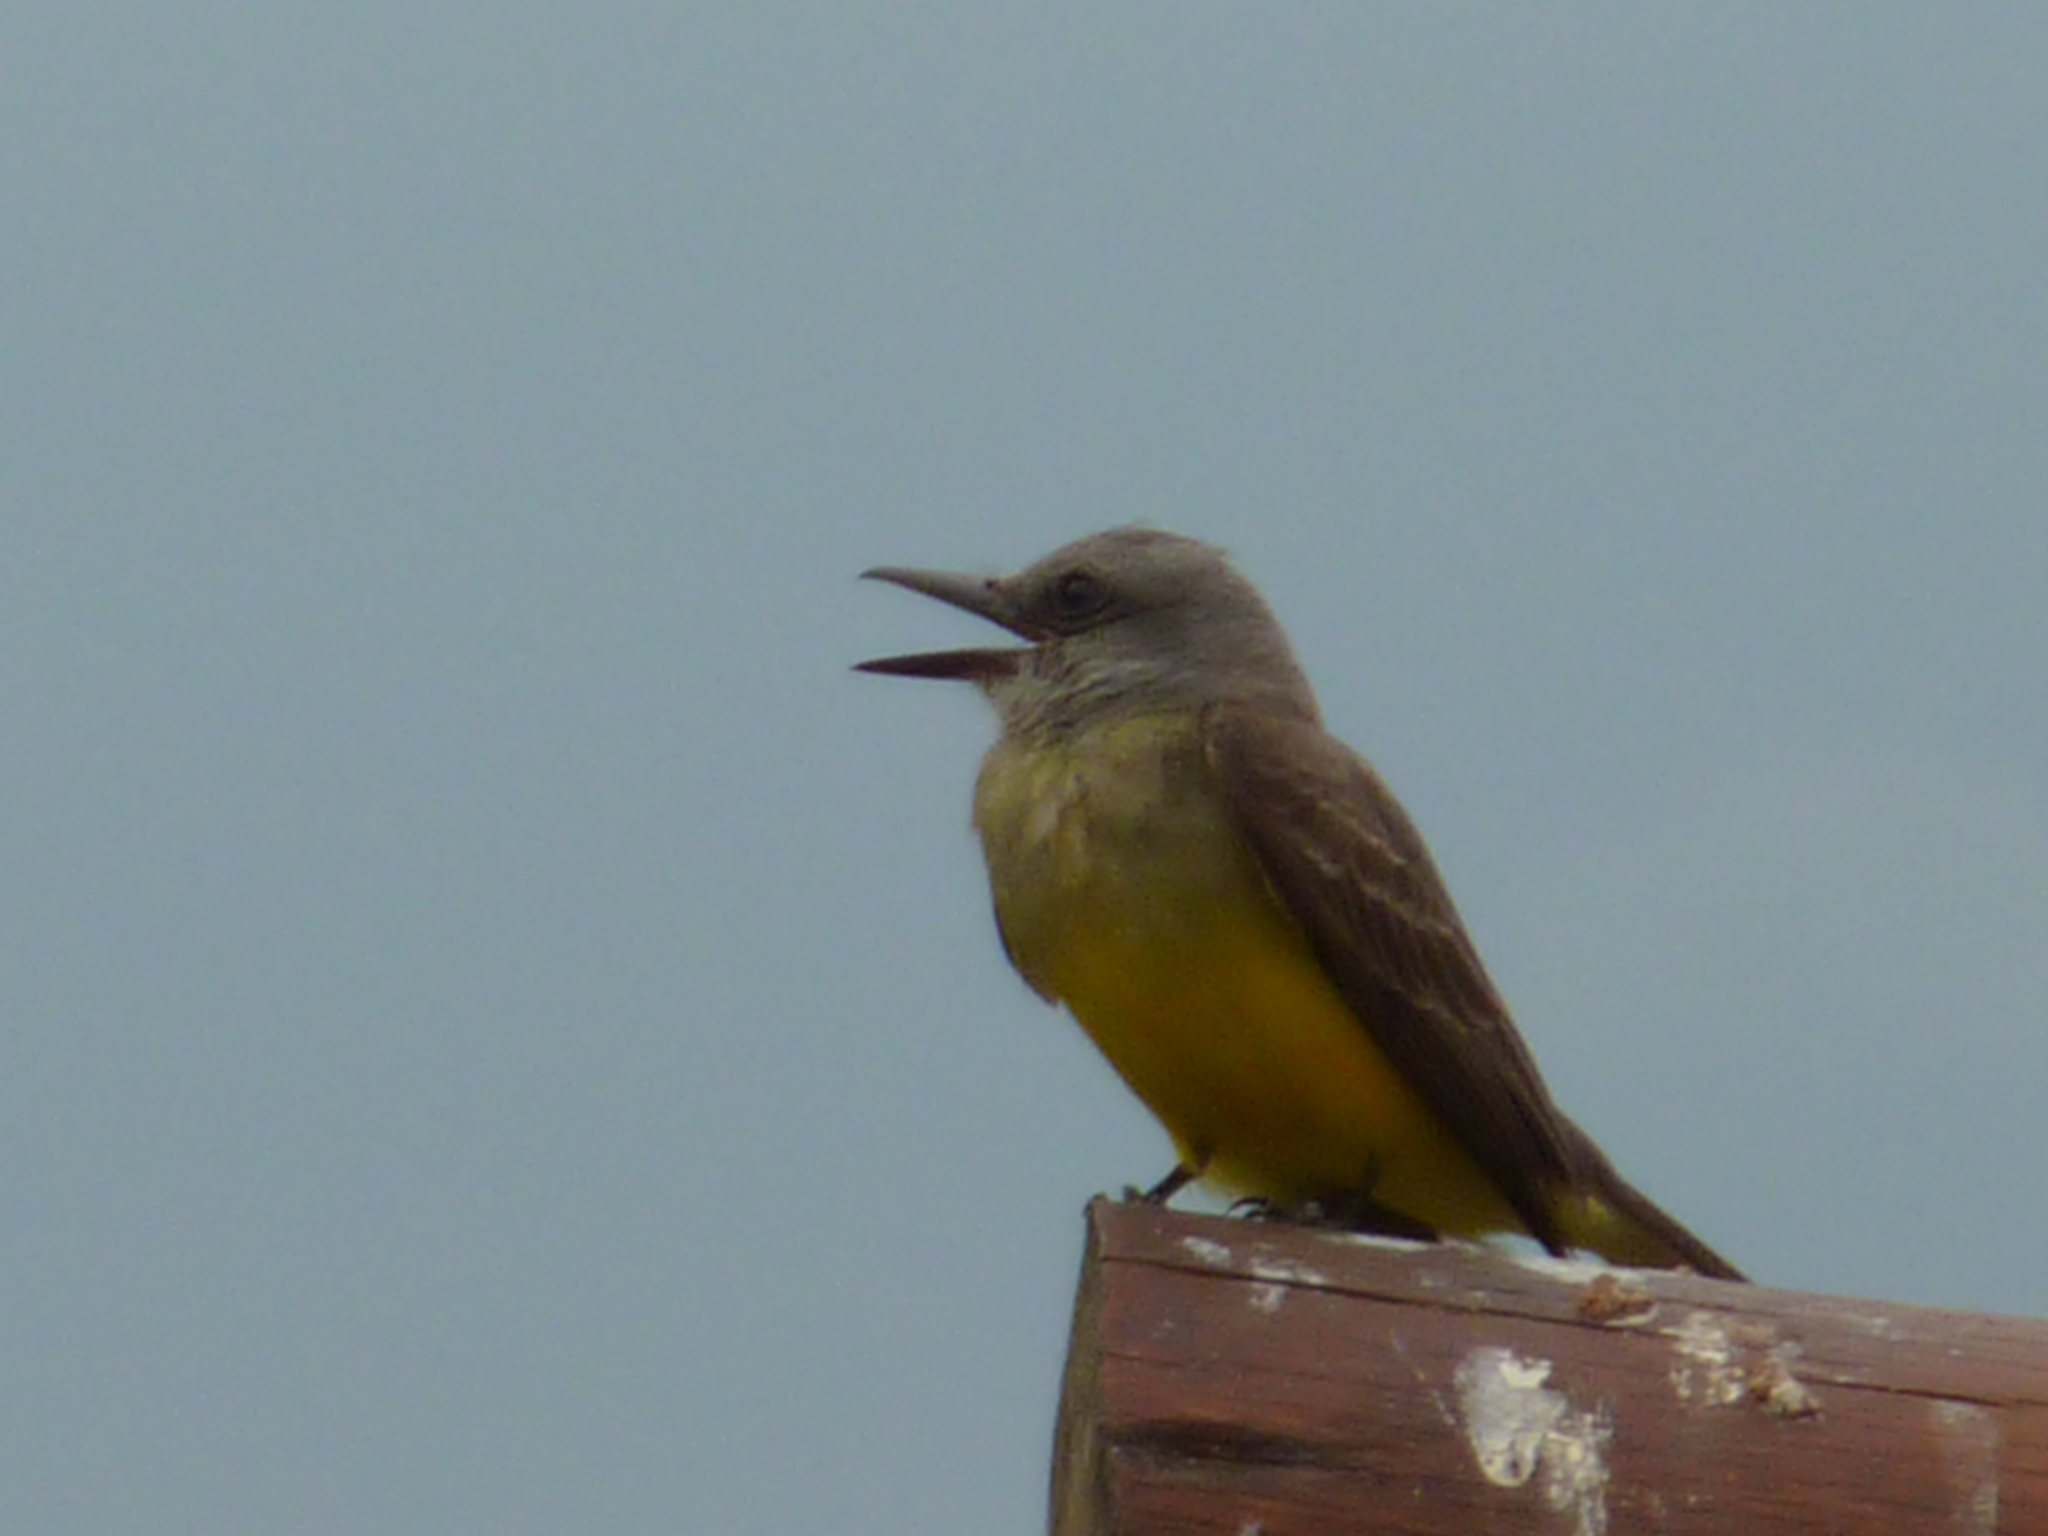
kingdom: Animalia
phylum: Chordata
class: Aves
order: Passeriformes
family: Tyrannidae
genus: Tyrannus
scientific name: Tyrannus melancholicus
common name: Tropical kingbird
